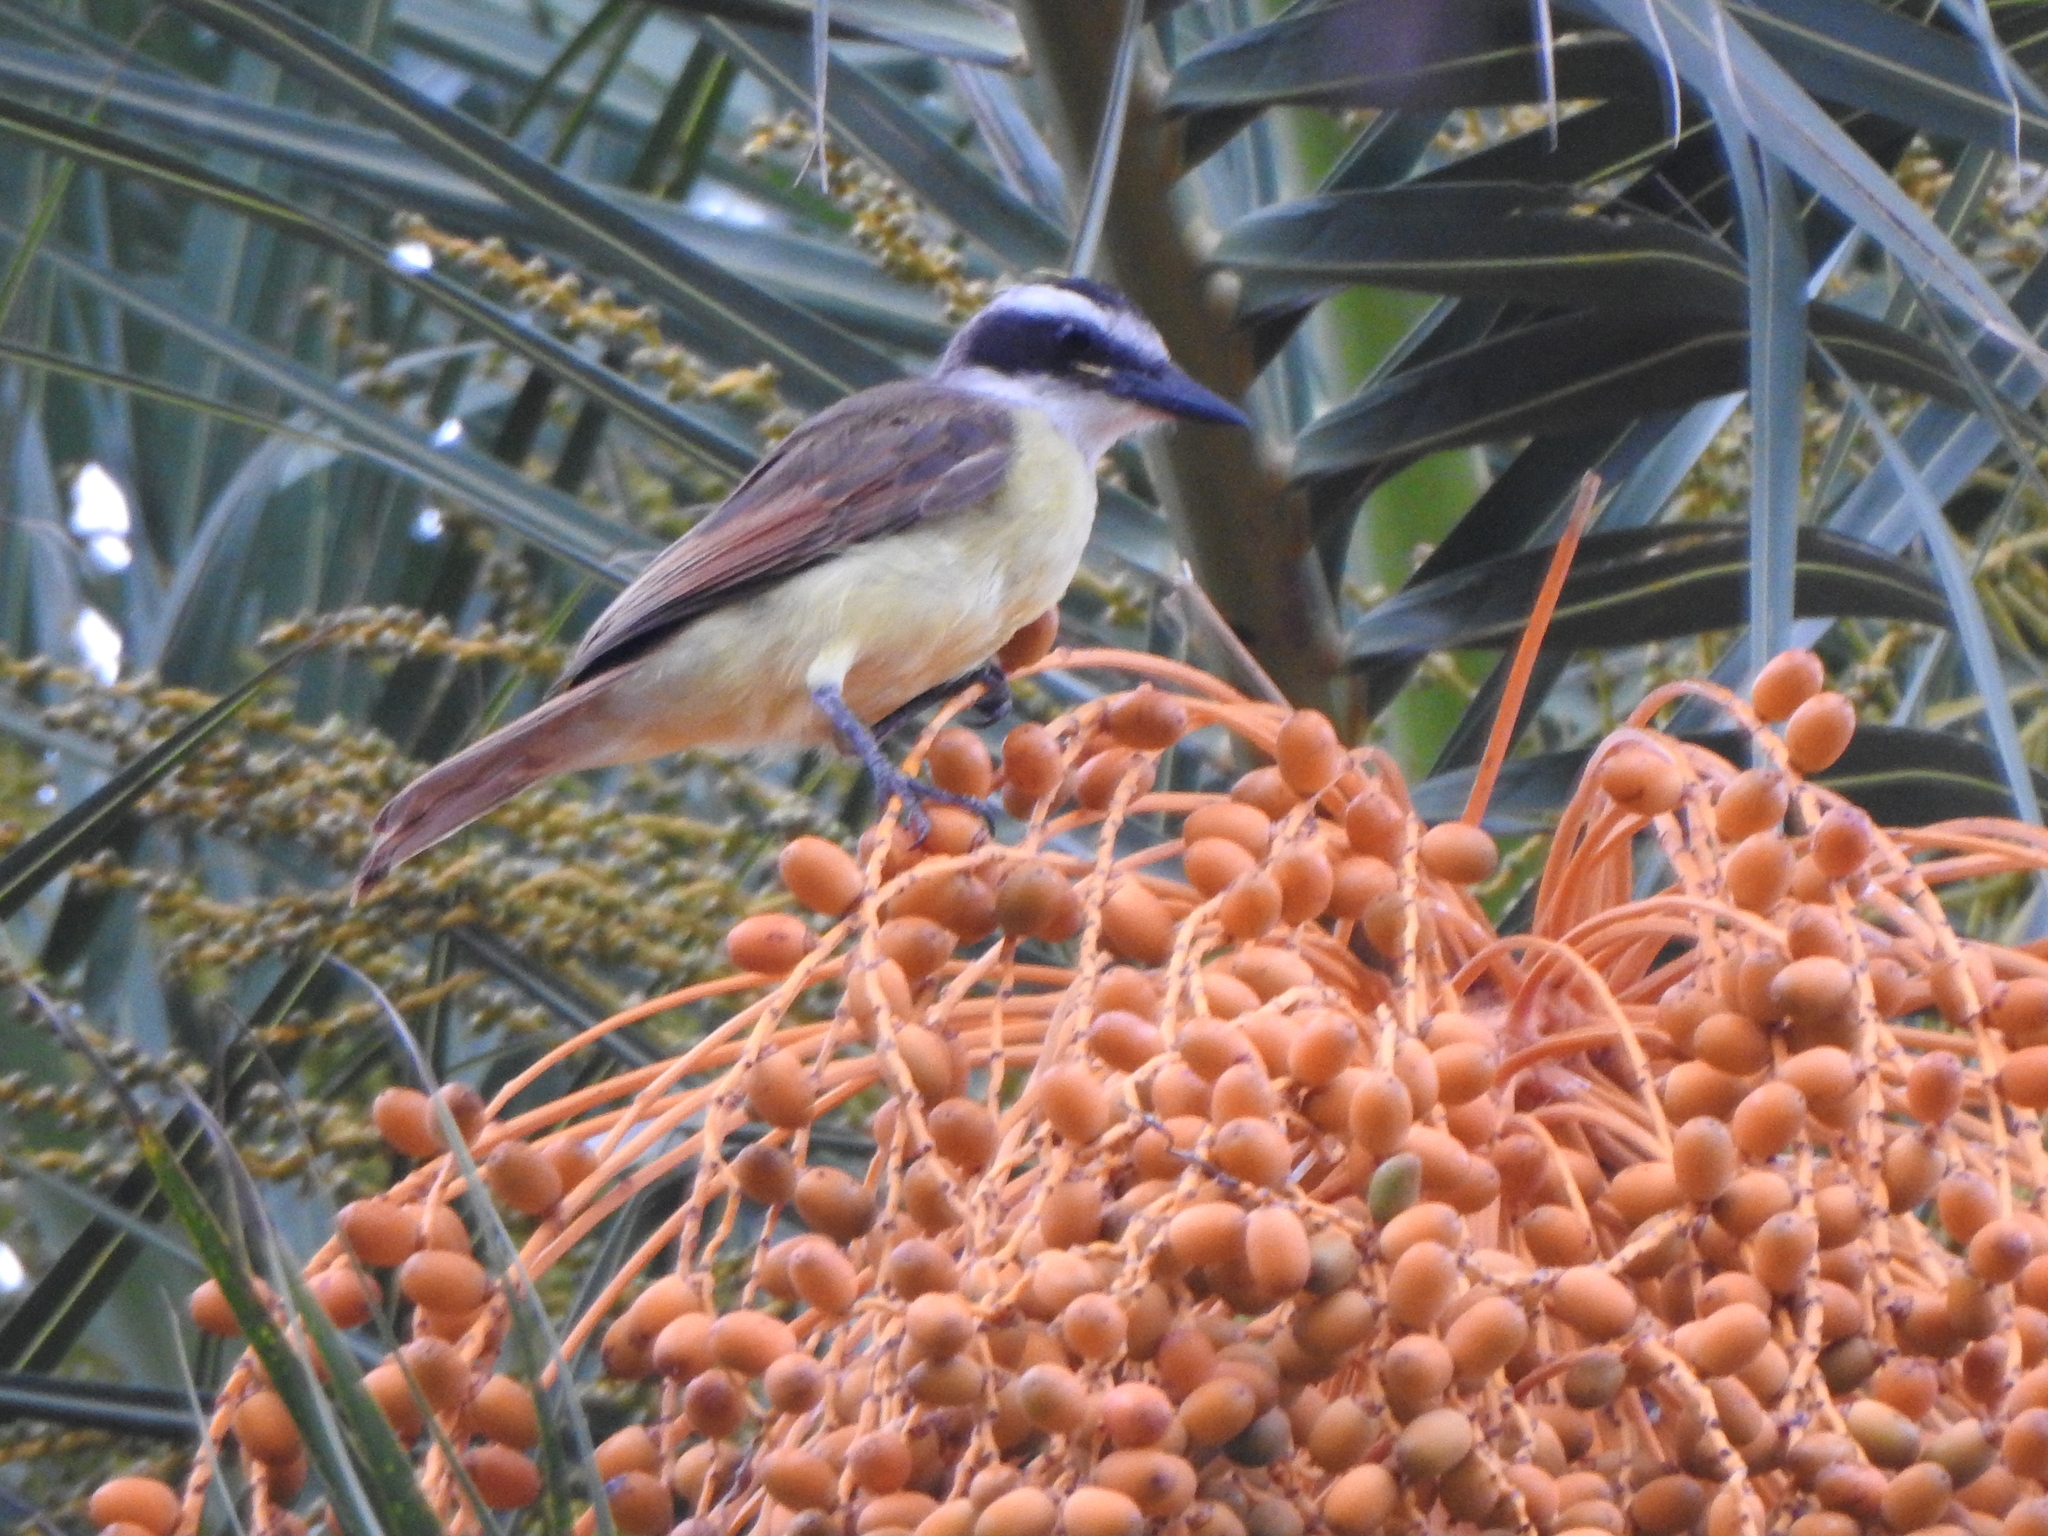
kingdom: Animalia
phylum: Chordata
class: Aves
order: Passeriformes
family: Tyrannidae
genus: Pitangus
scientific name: Pitangus sulphuratus
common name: Great kiskadee
